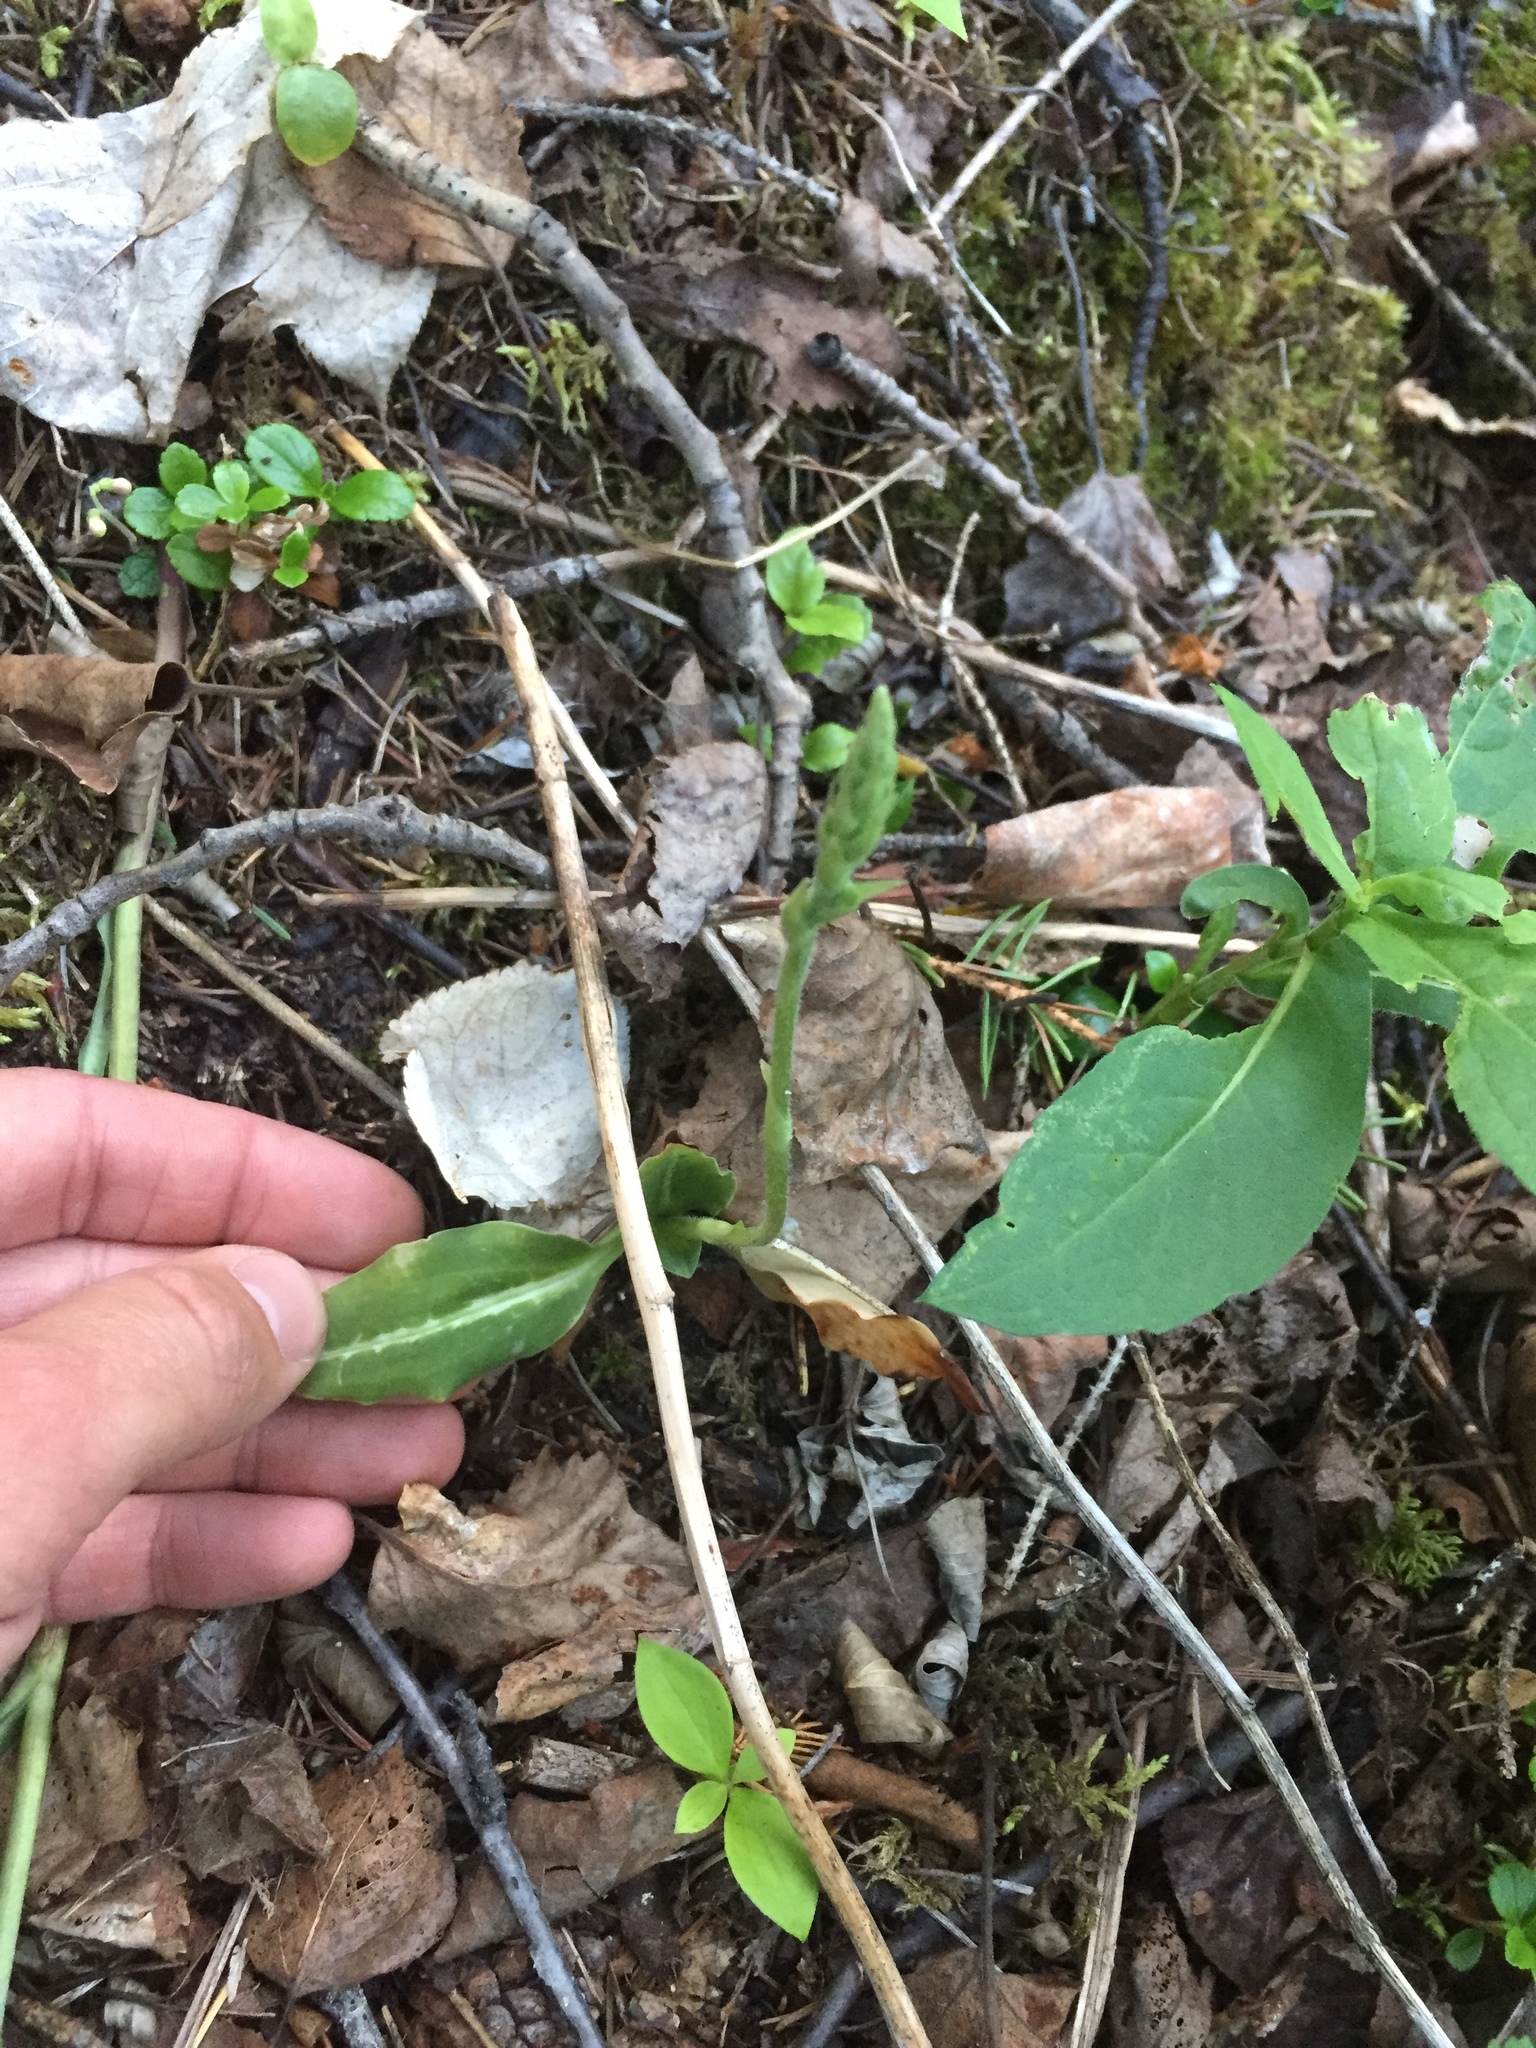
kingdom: Plantae
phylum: Tracheophyta
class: Liliopsida
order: Asparagales
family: Orchidaceae
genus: Goodyera
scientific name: Goodyera oblongifolia
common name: Giant rattlesnake-plantain
